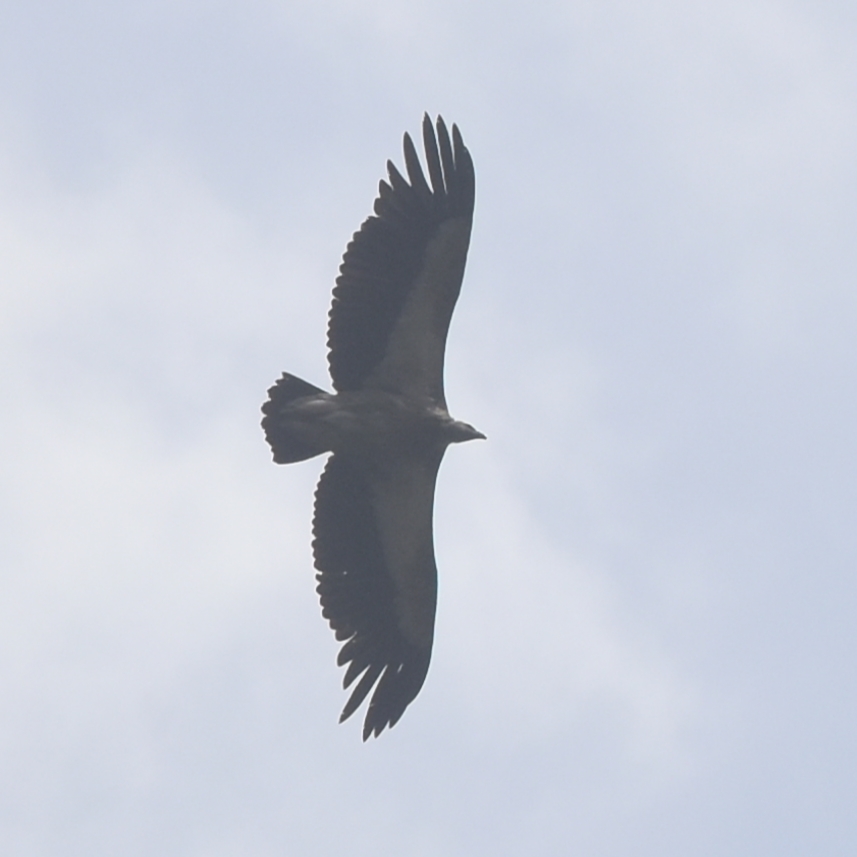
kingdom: Animalia
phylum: Chordata
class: Aves
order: Accipitriformes
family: Accipitridae
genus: Gyps
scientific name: Gyps himalayensis
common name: Himalayan griffon
